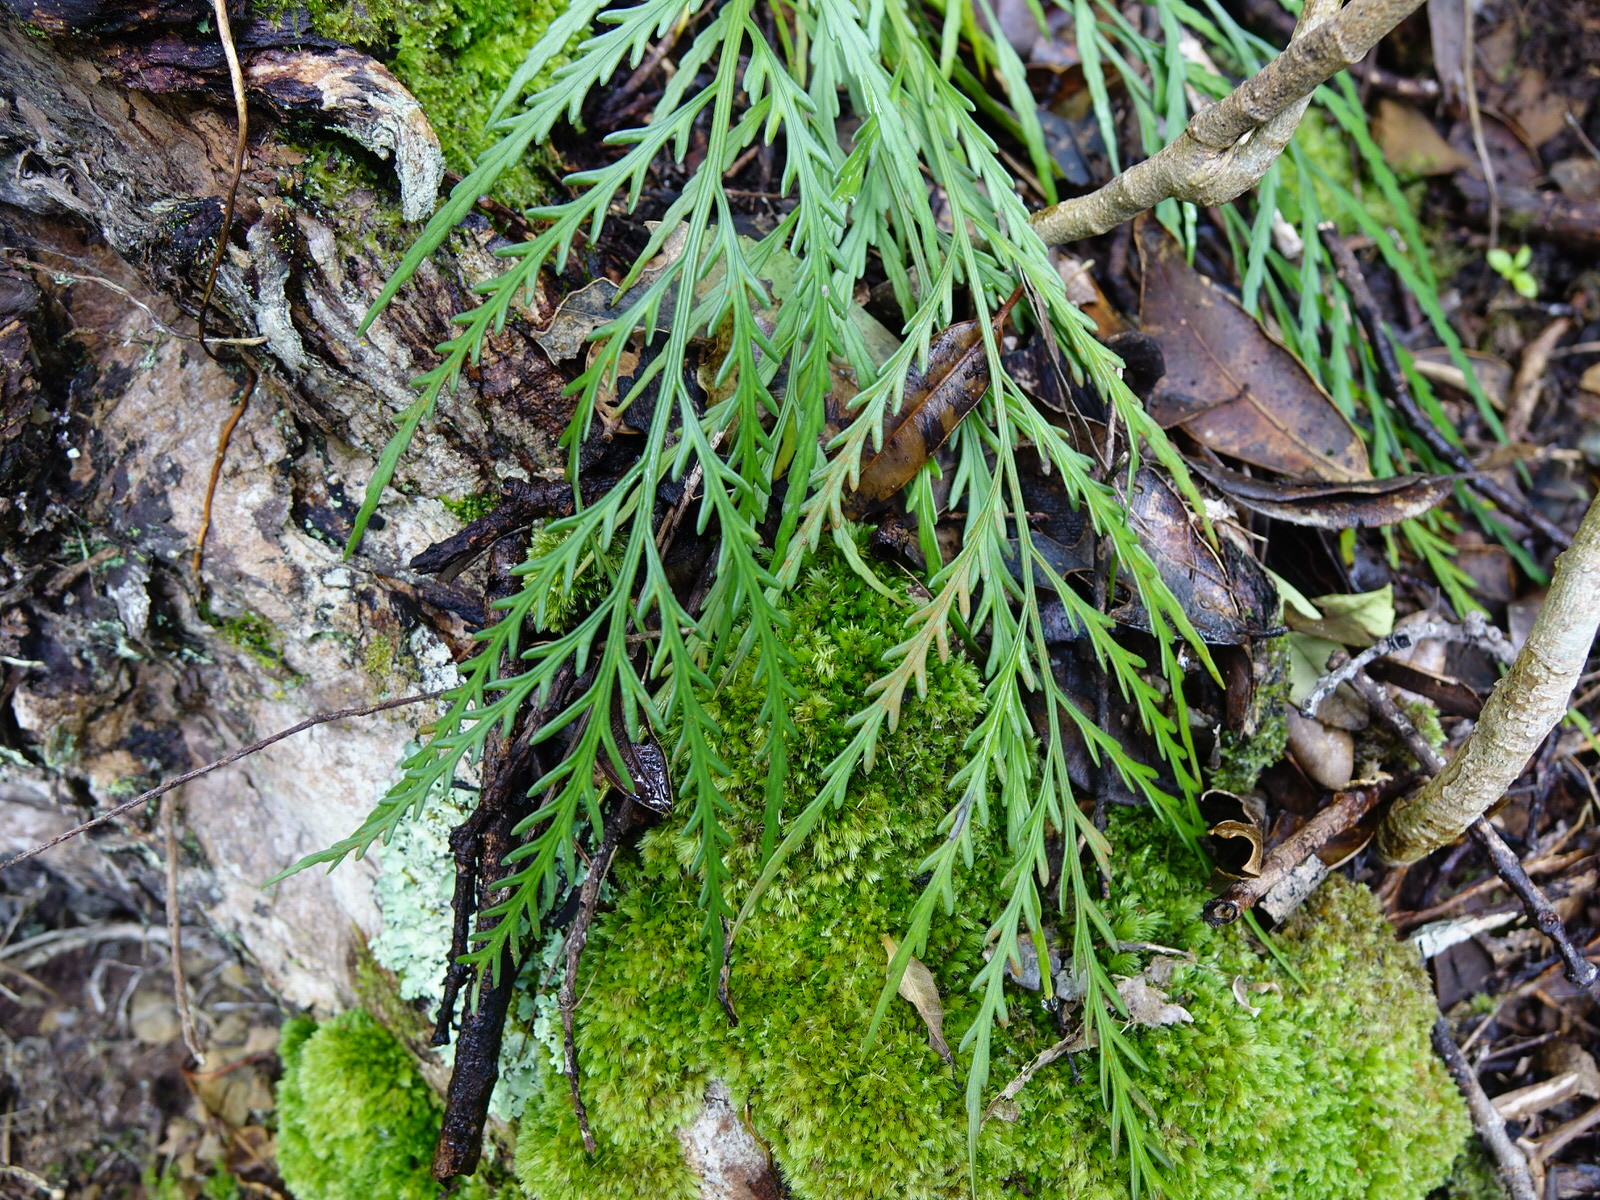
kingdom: Plantae
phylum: Tracheophyta
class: Polypodiopsida
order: Polypodiales
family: Aspleniaceae
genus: Asplenium
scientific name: Asplenium flaccidum
